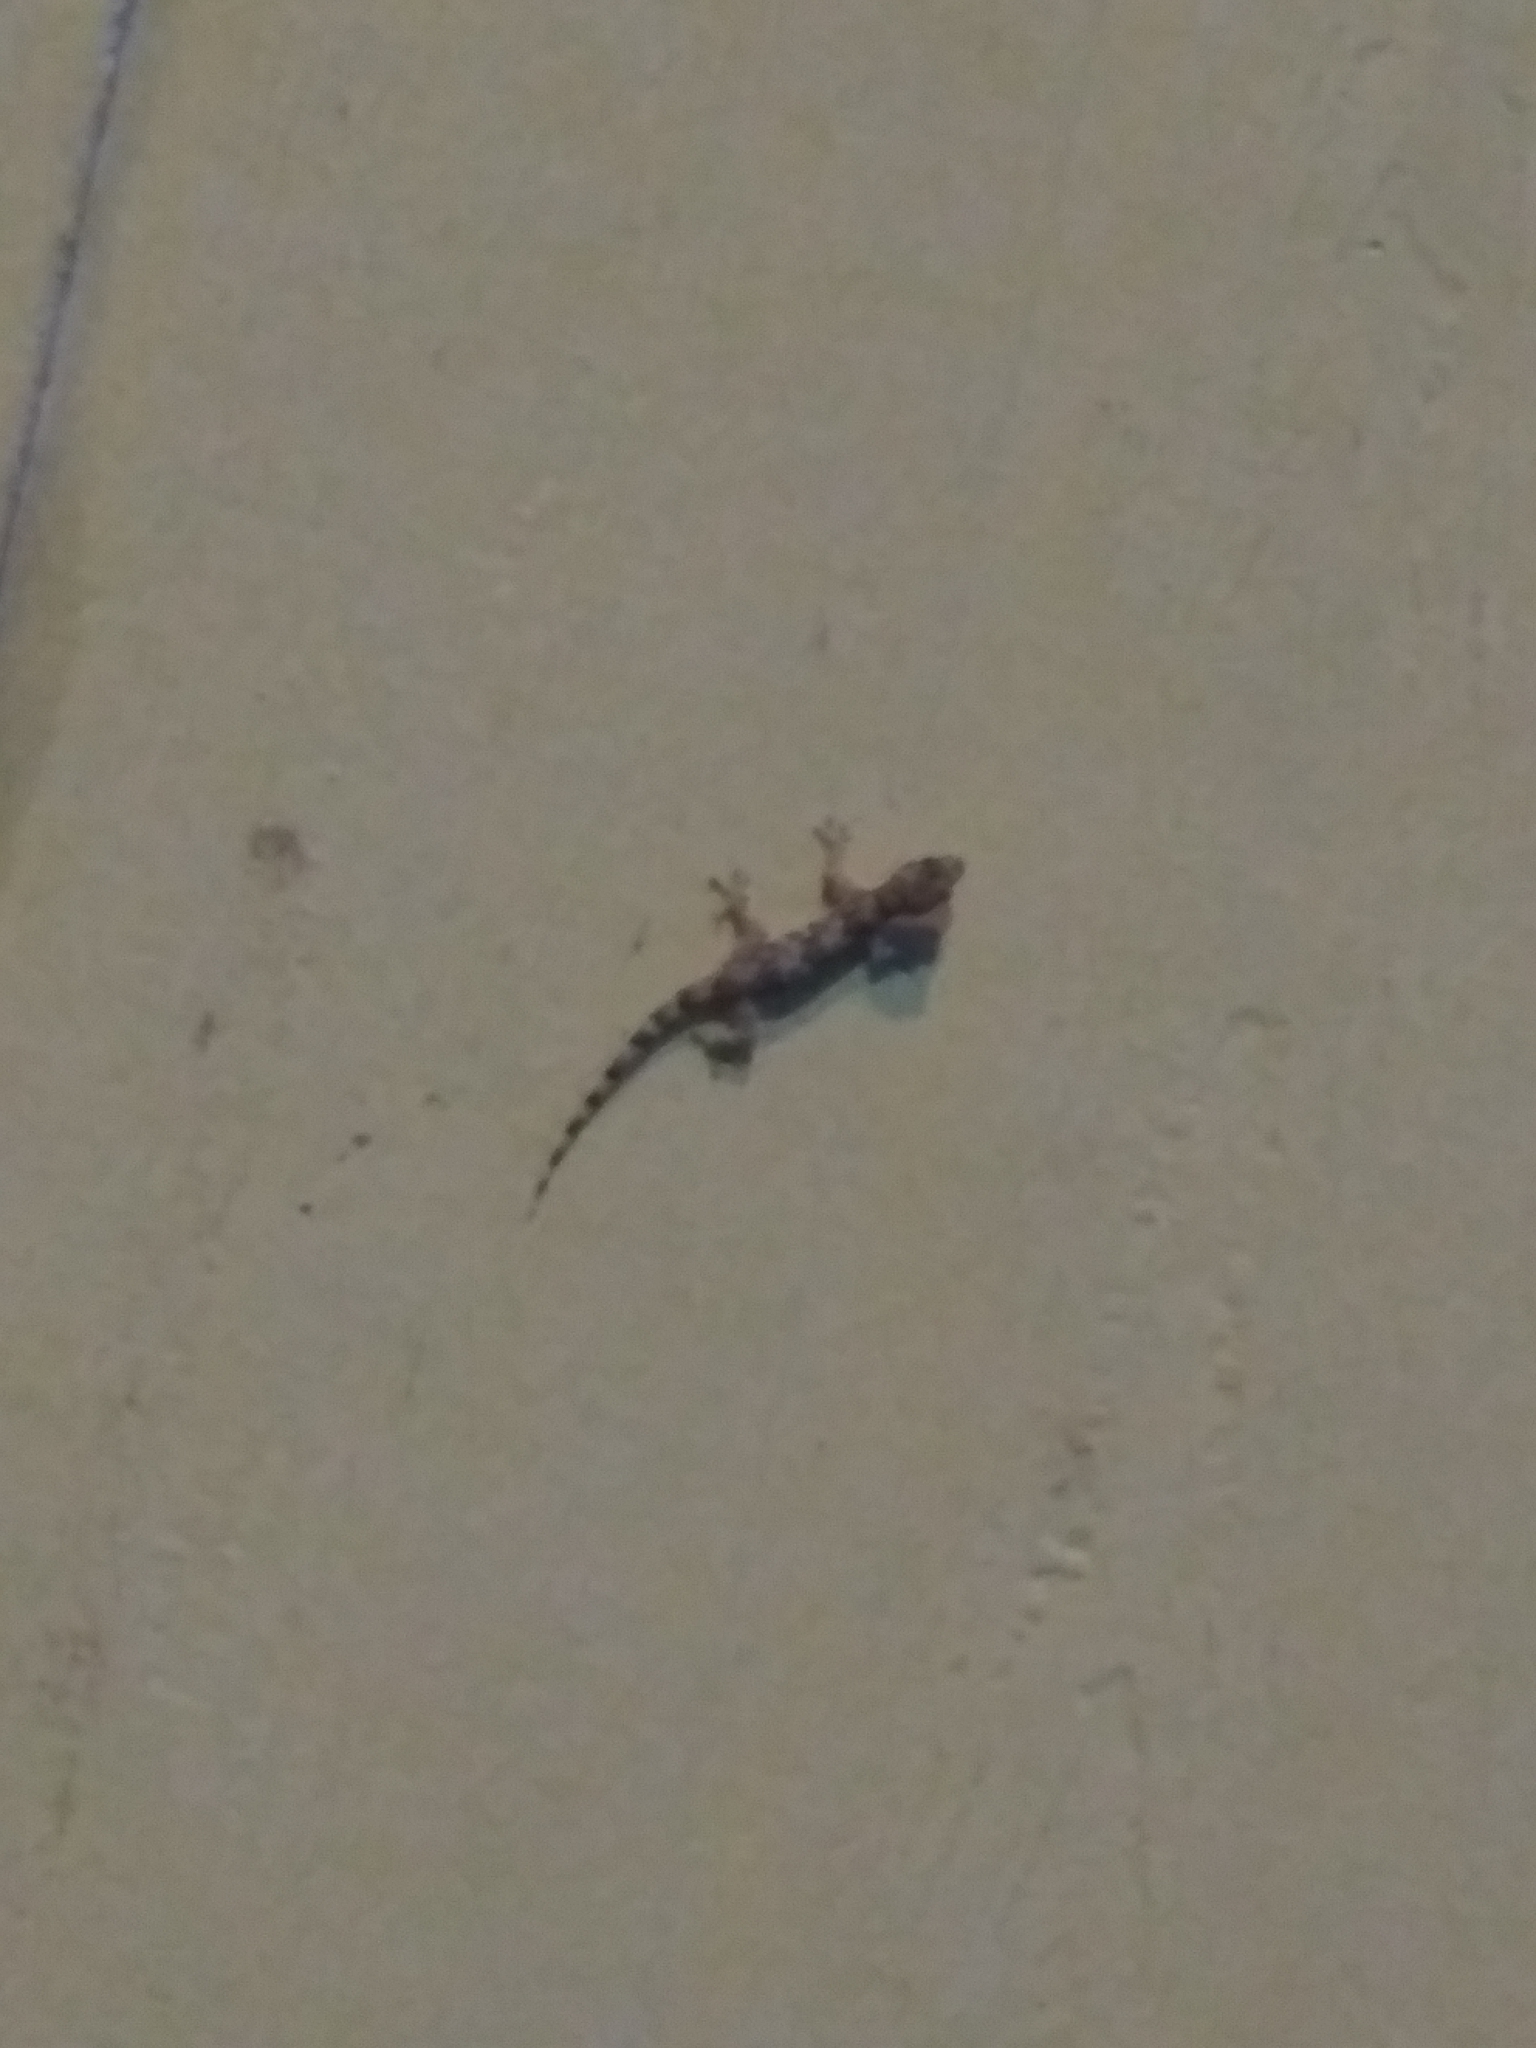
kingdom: Animalia
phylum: Chordata
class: Squamata
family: Gekkonidae
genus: Hemidactylus
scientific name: Hemidactylus mabouia
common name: House gecko
